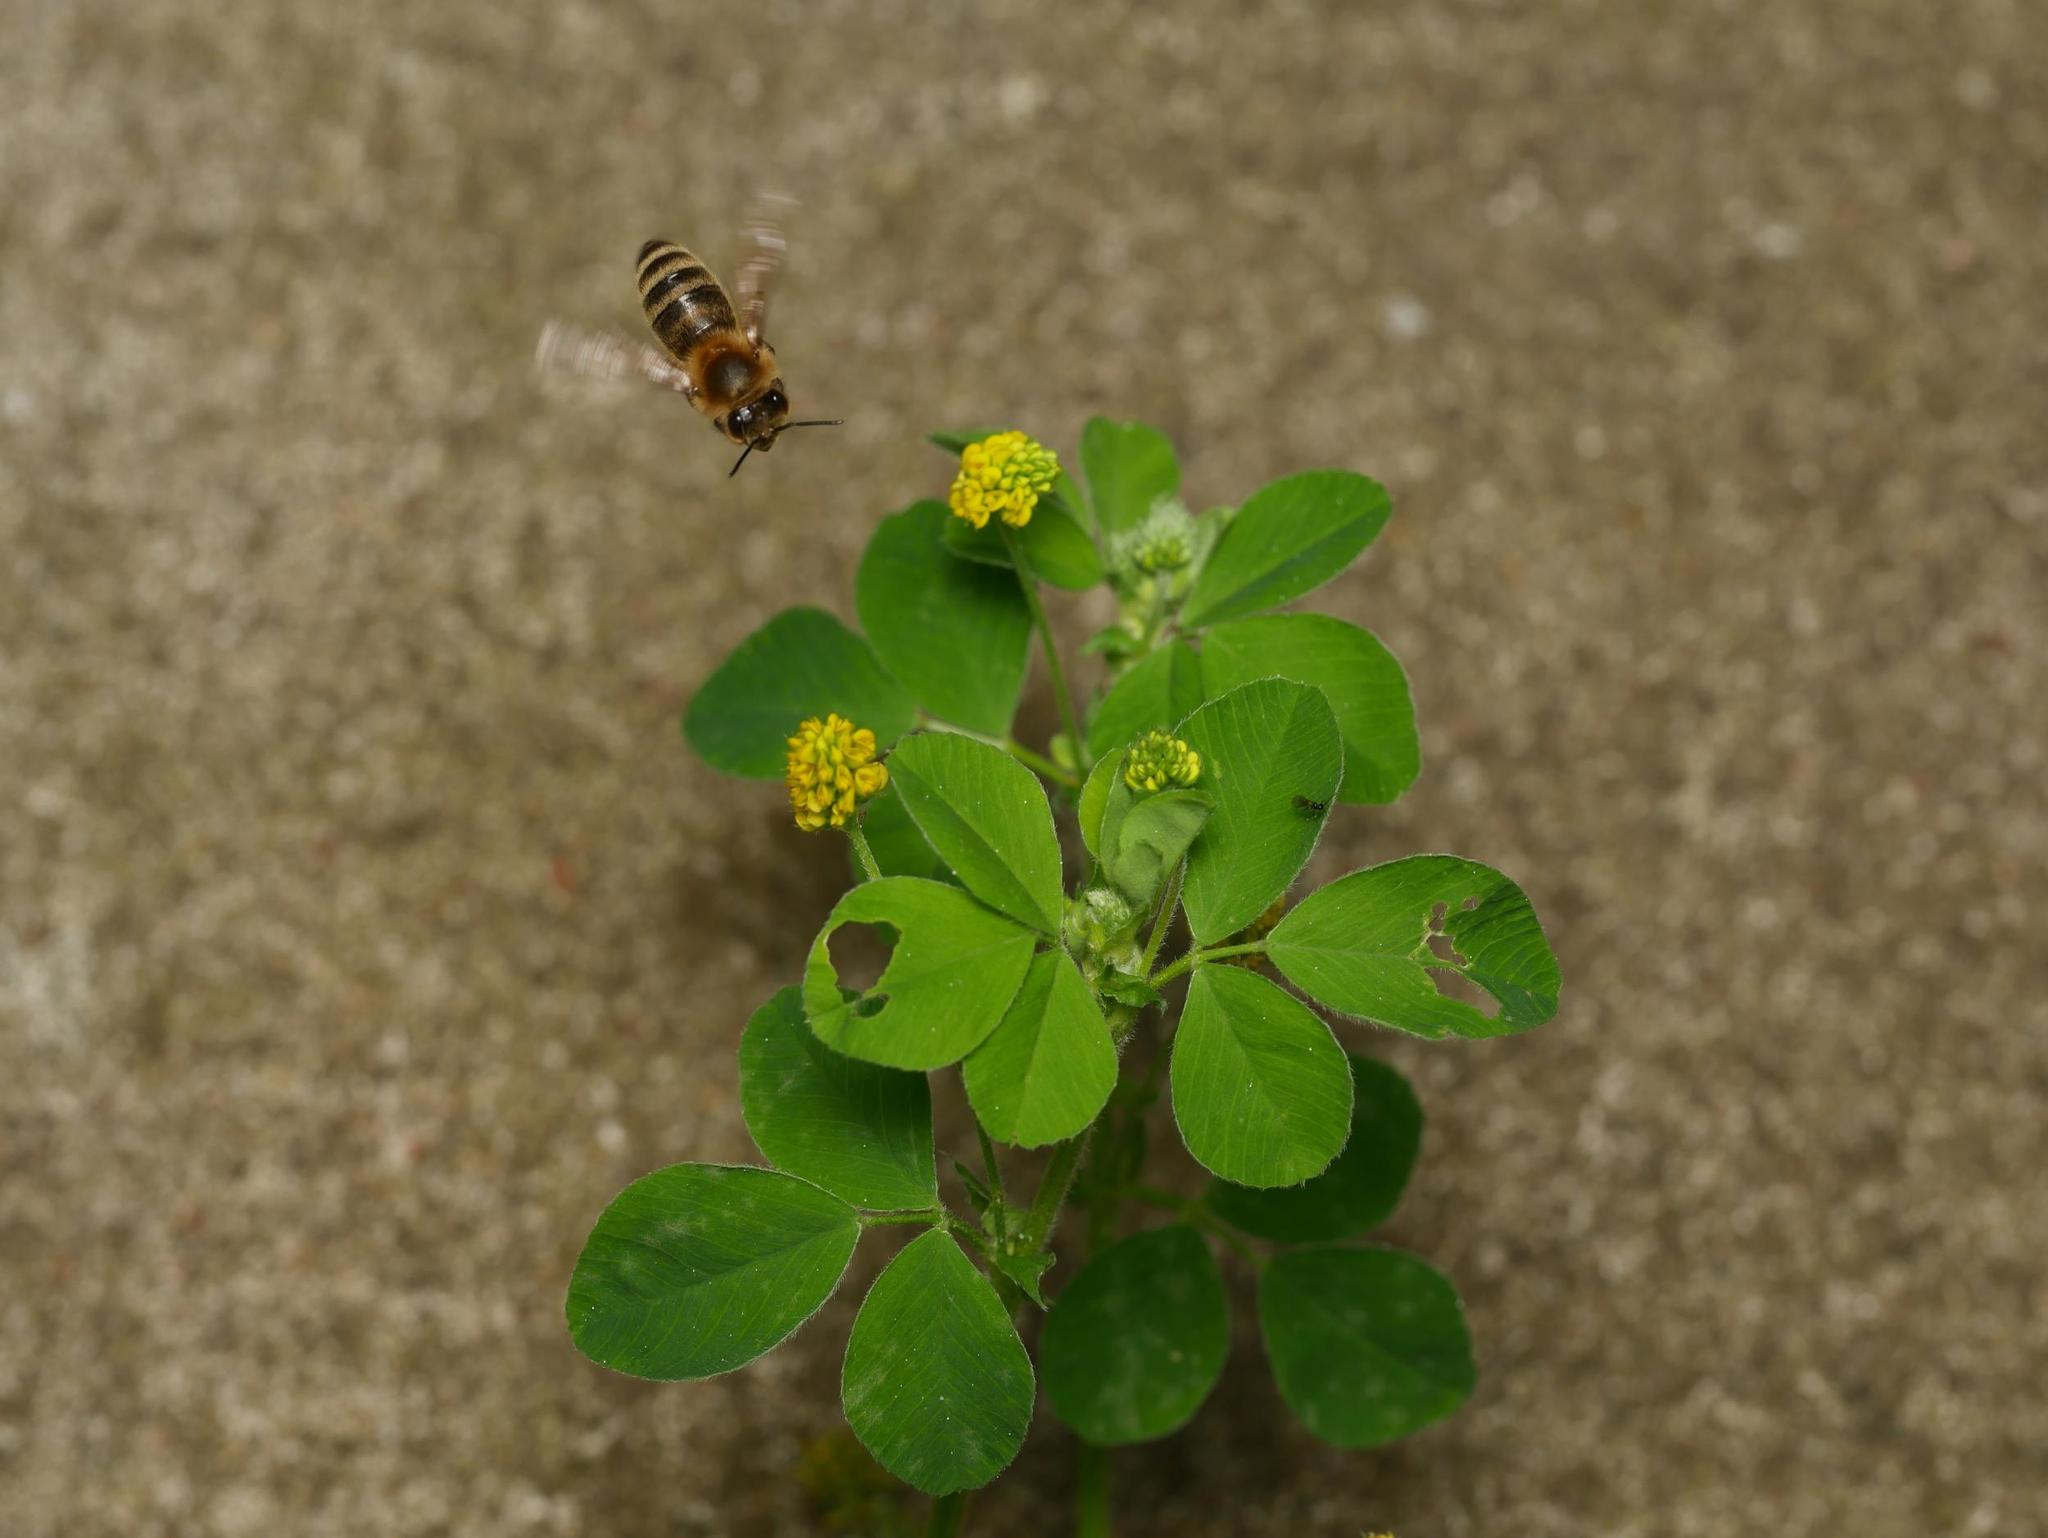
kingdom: Plantae
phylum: Tracheophyta
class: Magnoliopsida
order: Fabales
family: Fabaceae
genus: Medicago
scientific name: Medicago lupulina
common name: Black medick
